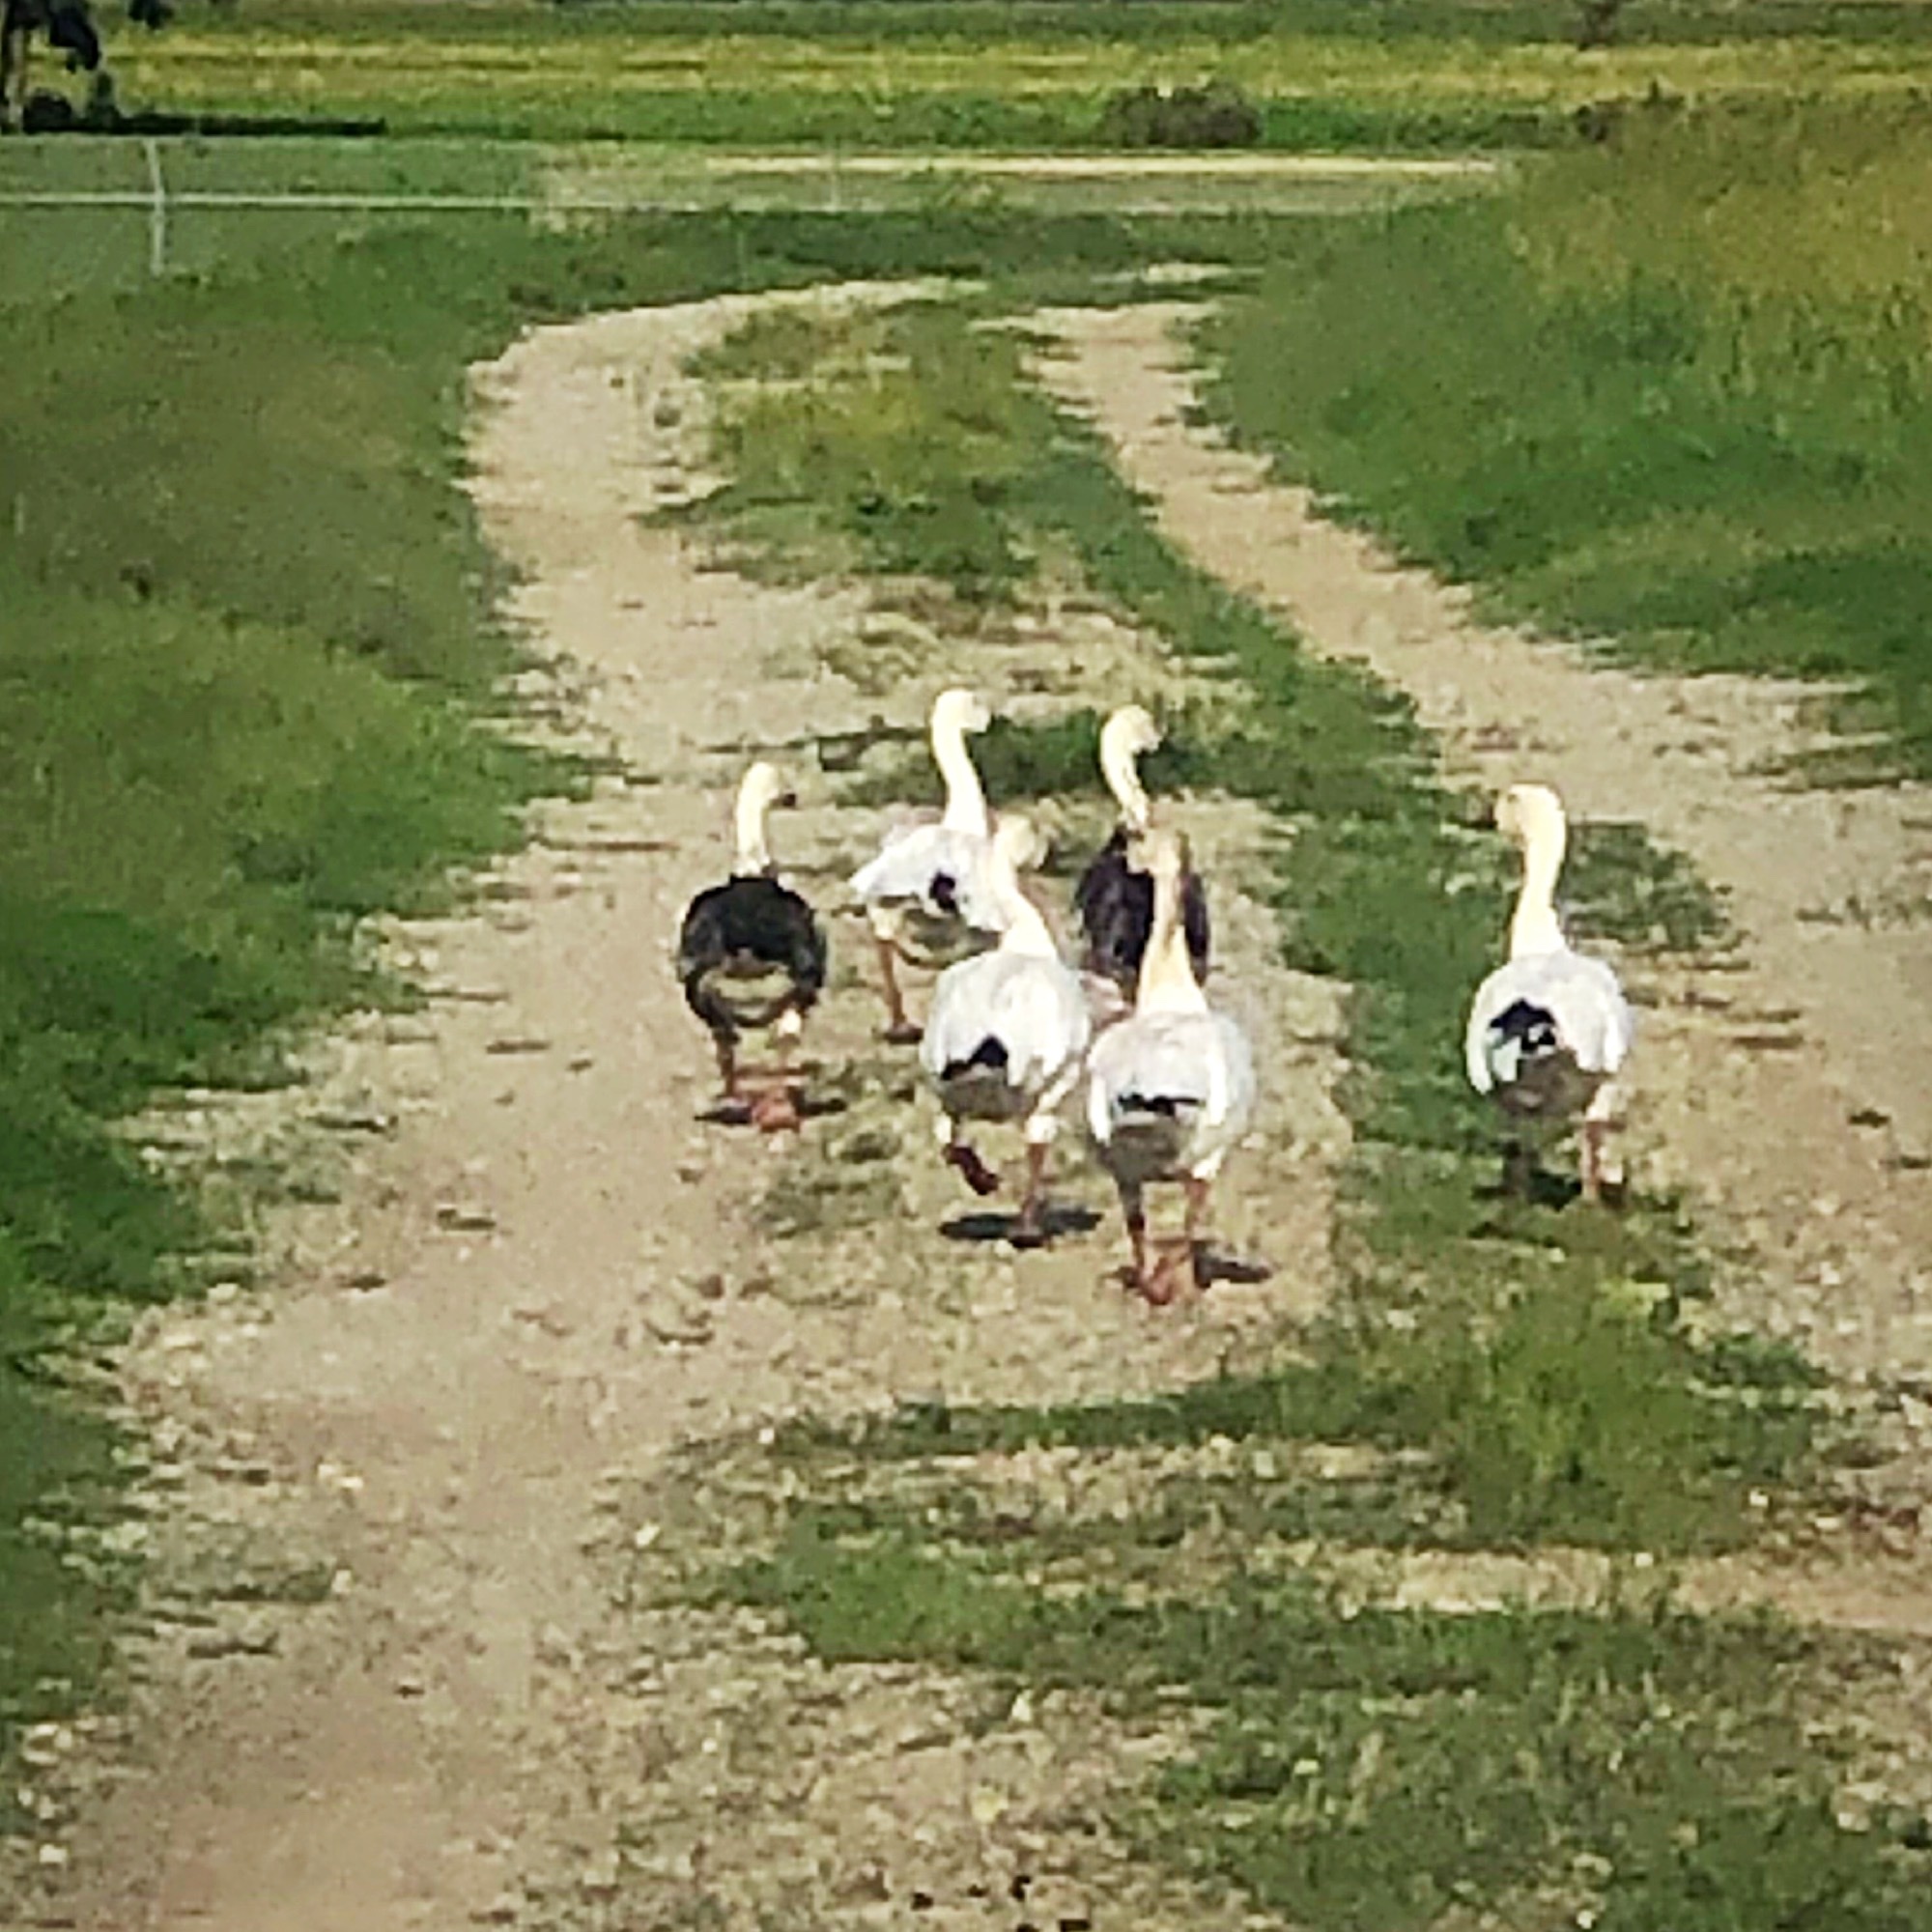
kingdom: Animalia
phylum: Chordata
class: Aves
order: Anseriformes
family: Anatidae
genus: Anser
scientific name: Anser caerulescens
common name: Snow goose
